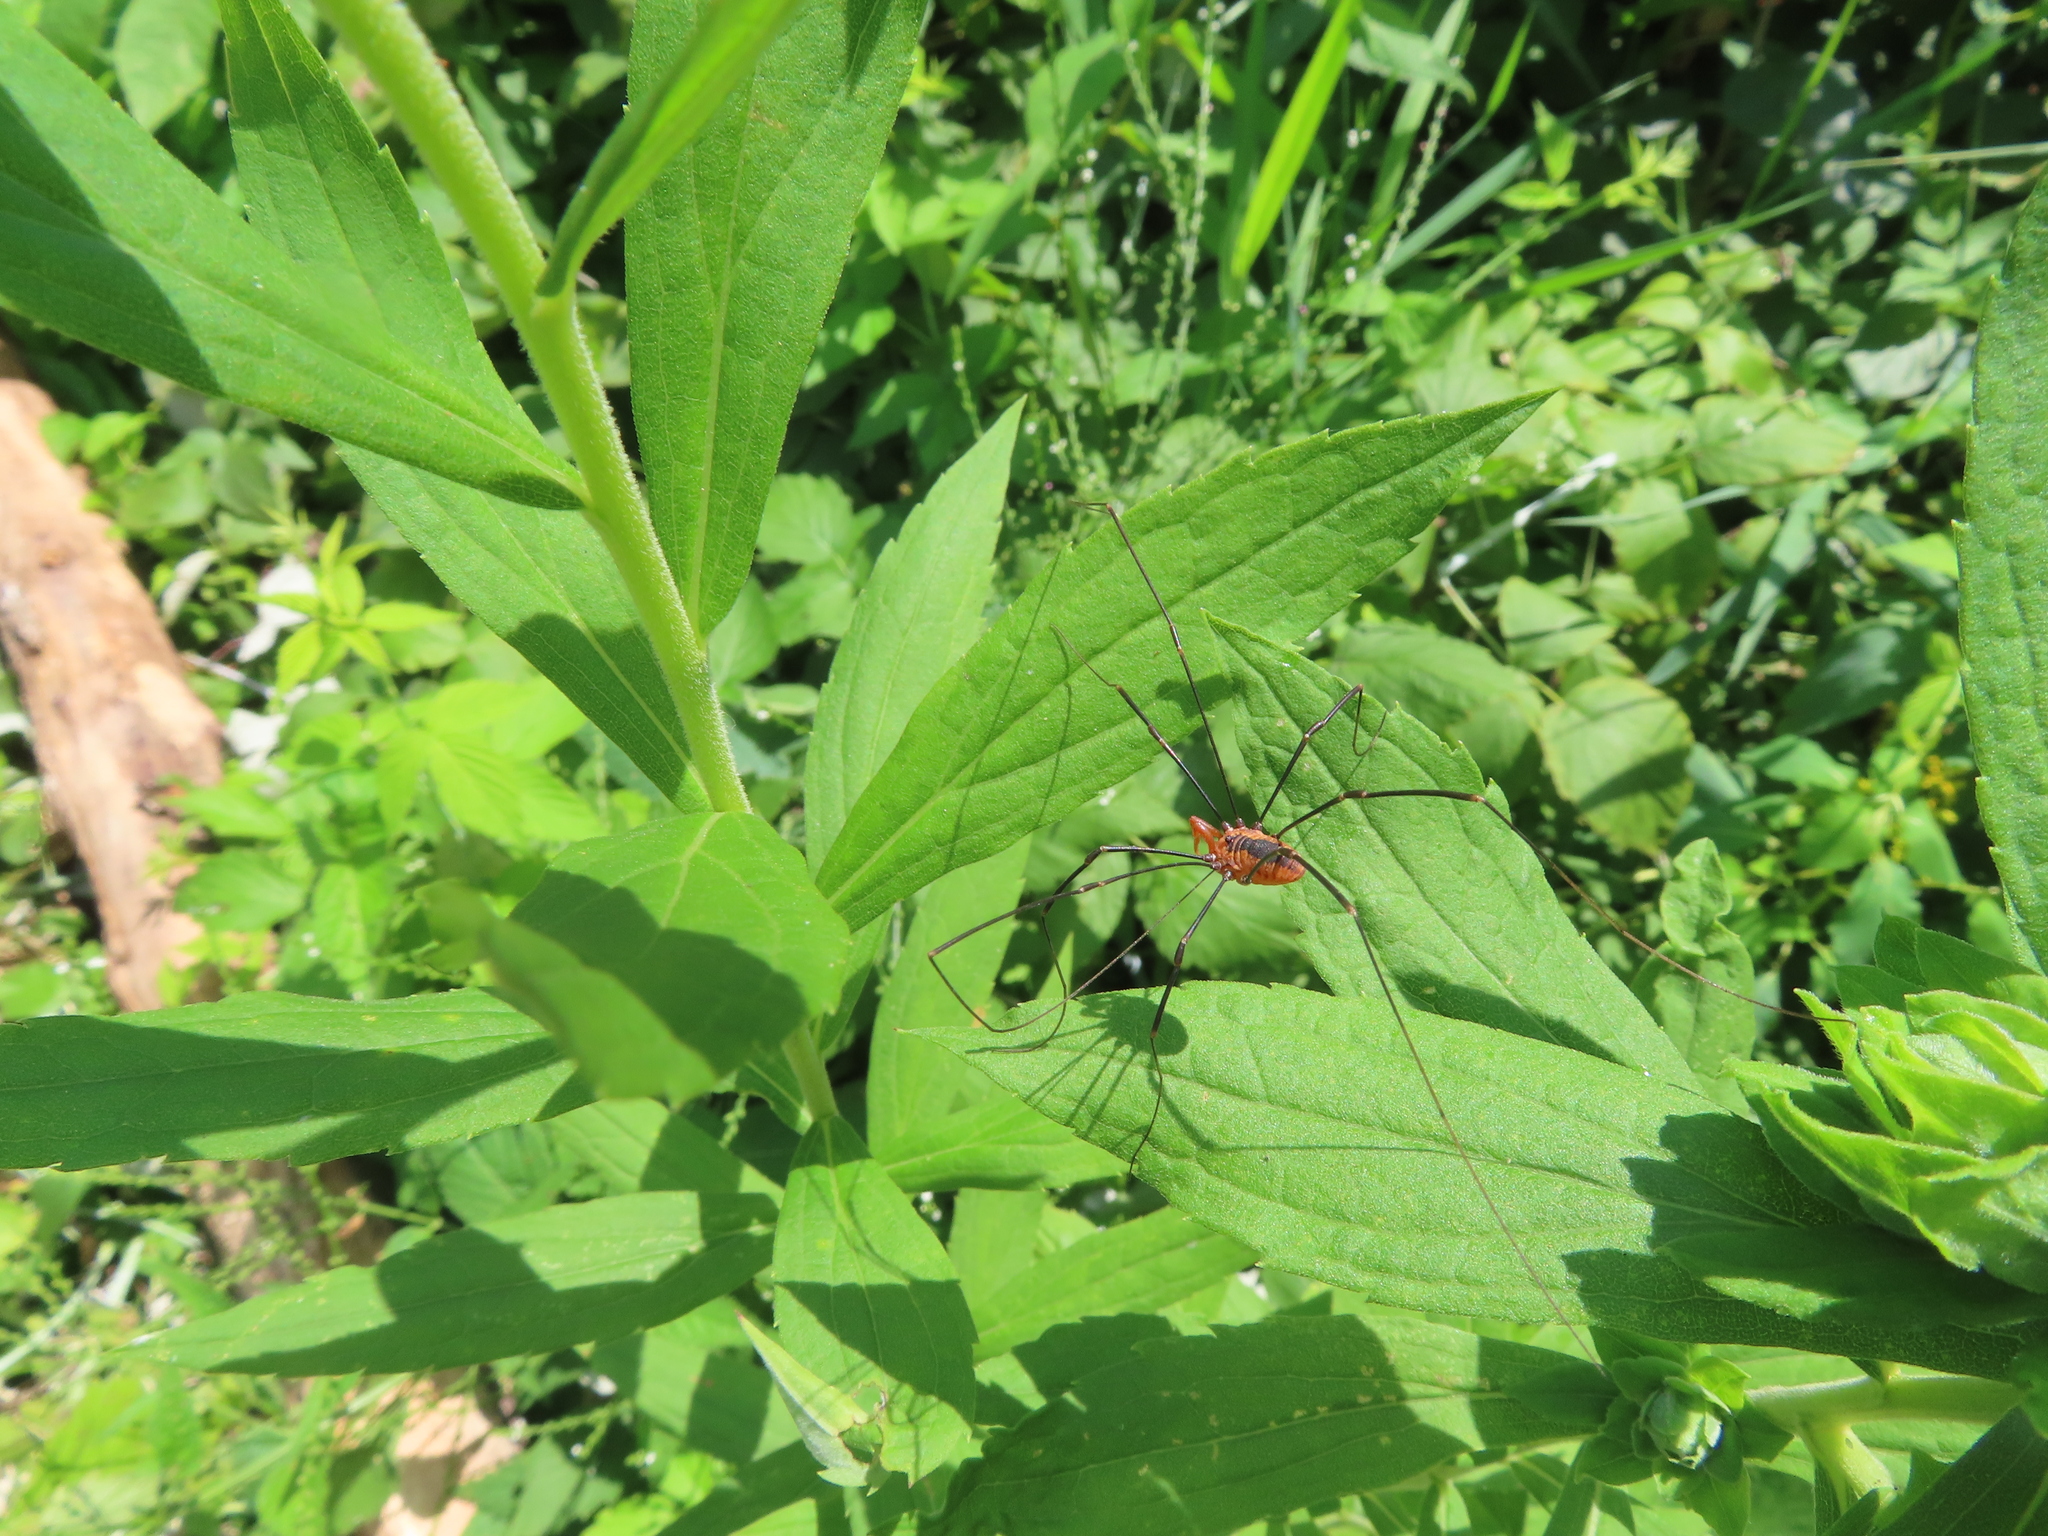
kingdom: Animalia
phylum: Arthropoda
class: Arachnida
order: Opiliones
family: Sclerosomatidae
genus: Leiobunum
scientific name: Leiobunum vittatum
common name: Eastern harvestman
